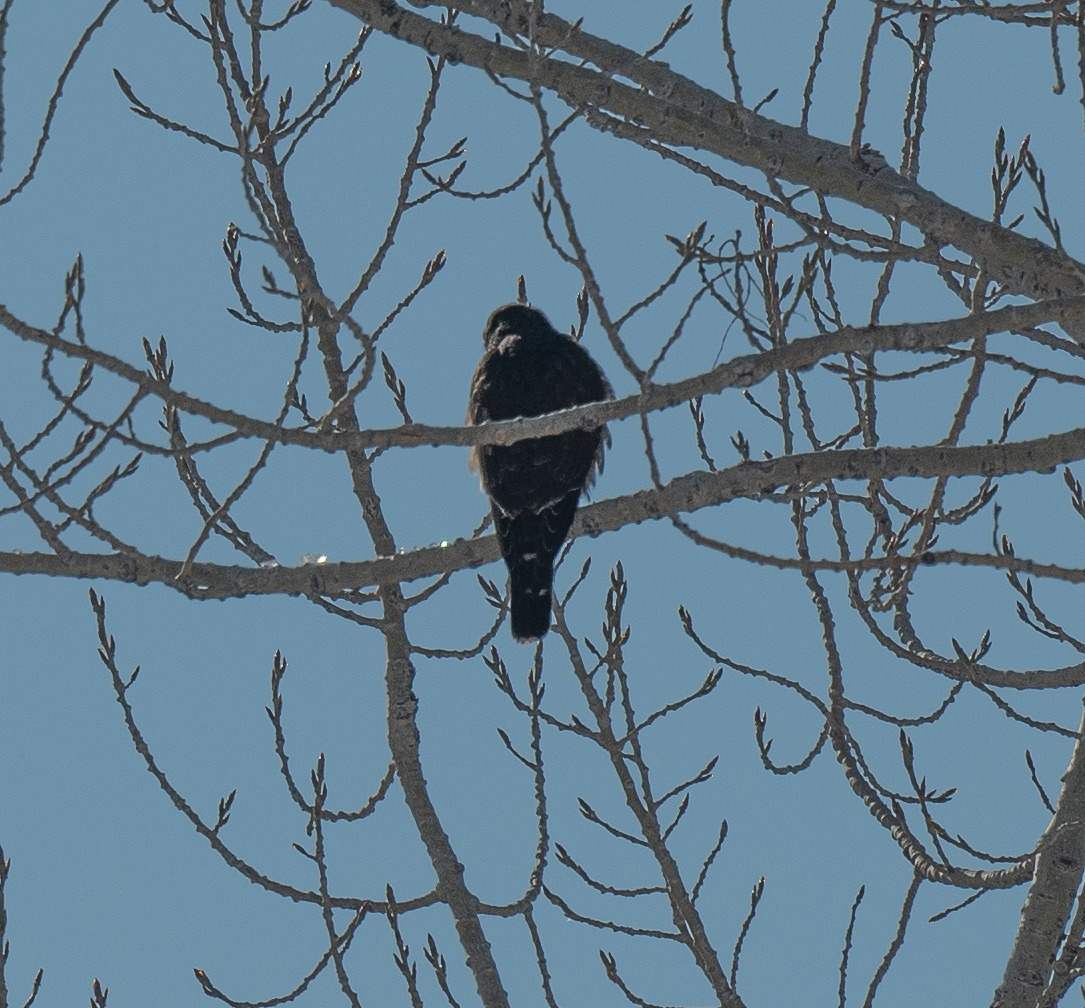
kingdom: Animalia
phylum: Chordata
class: Aves
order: Falconiformes
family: Falconidae
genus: Falco
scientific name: Falco columbarius
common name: Merlin
